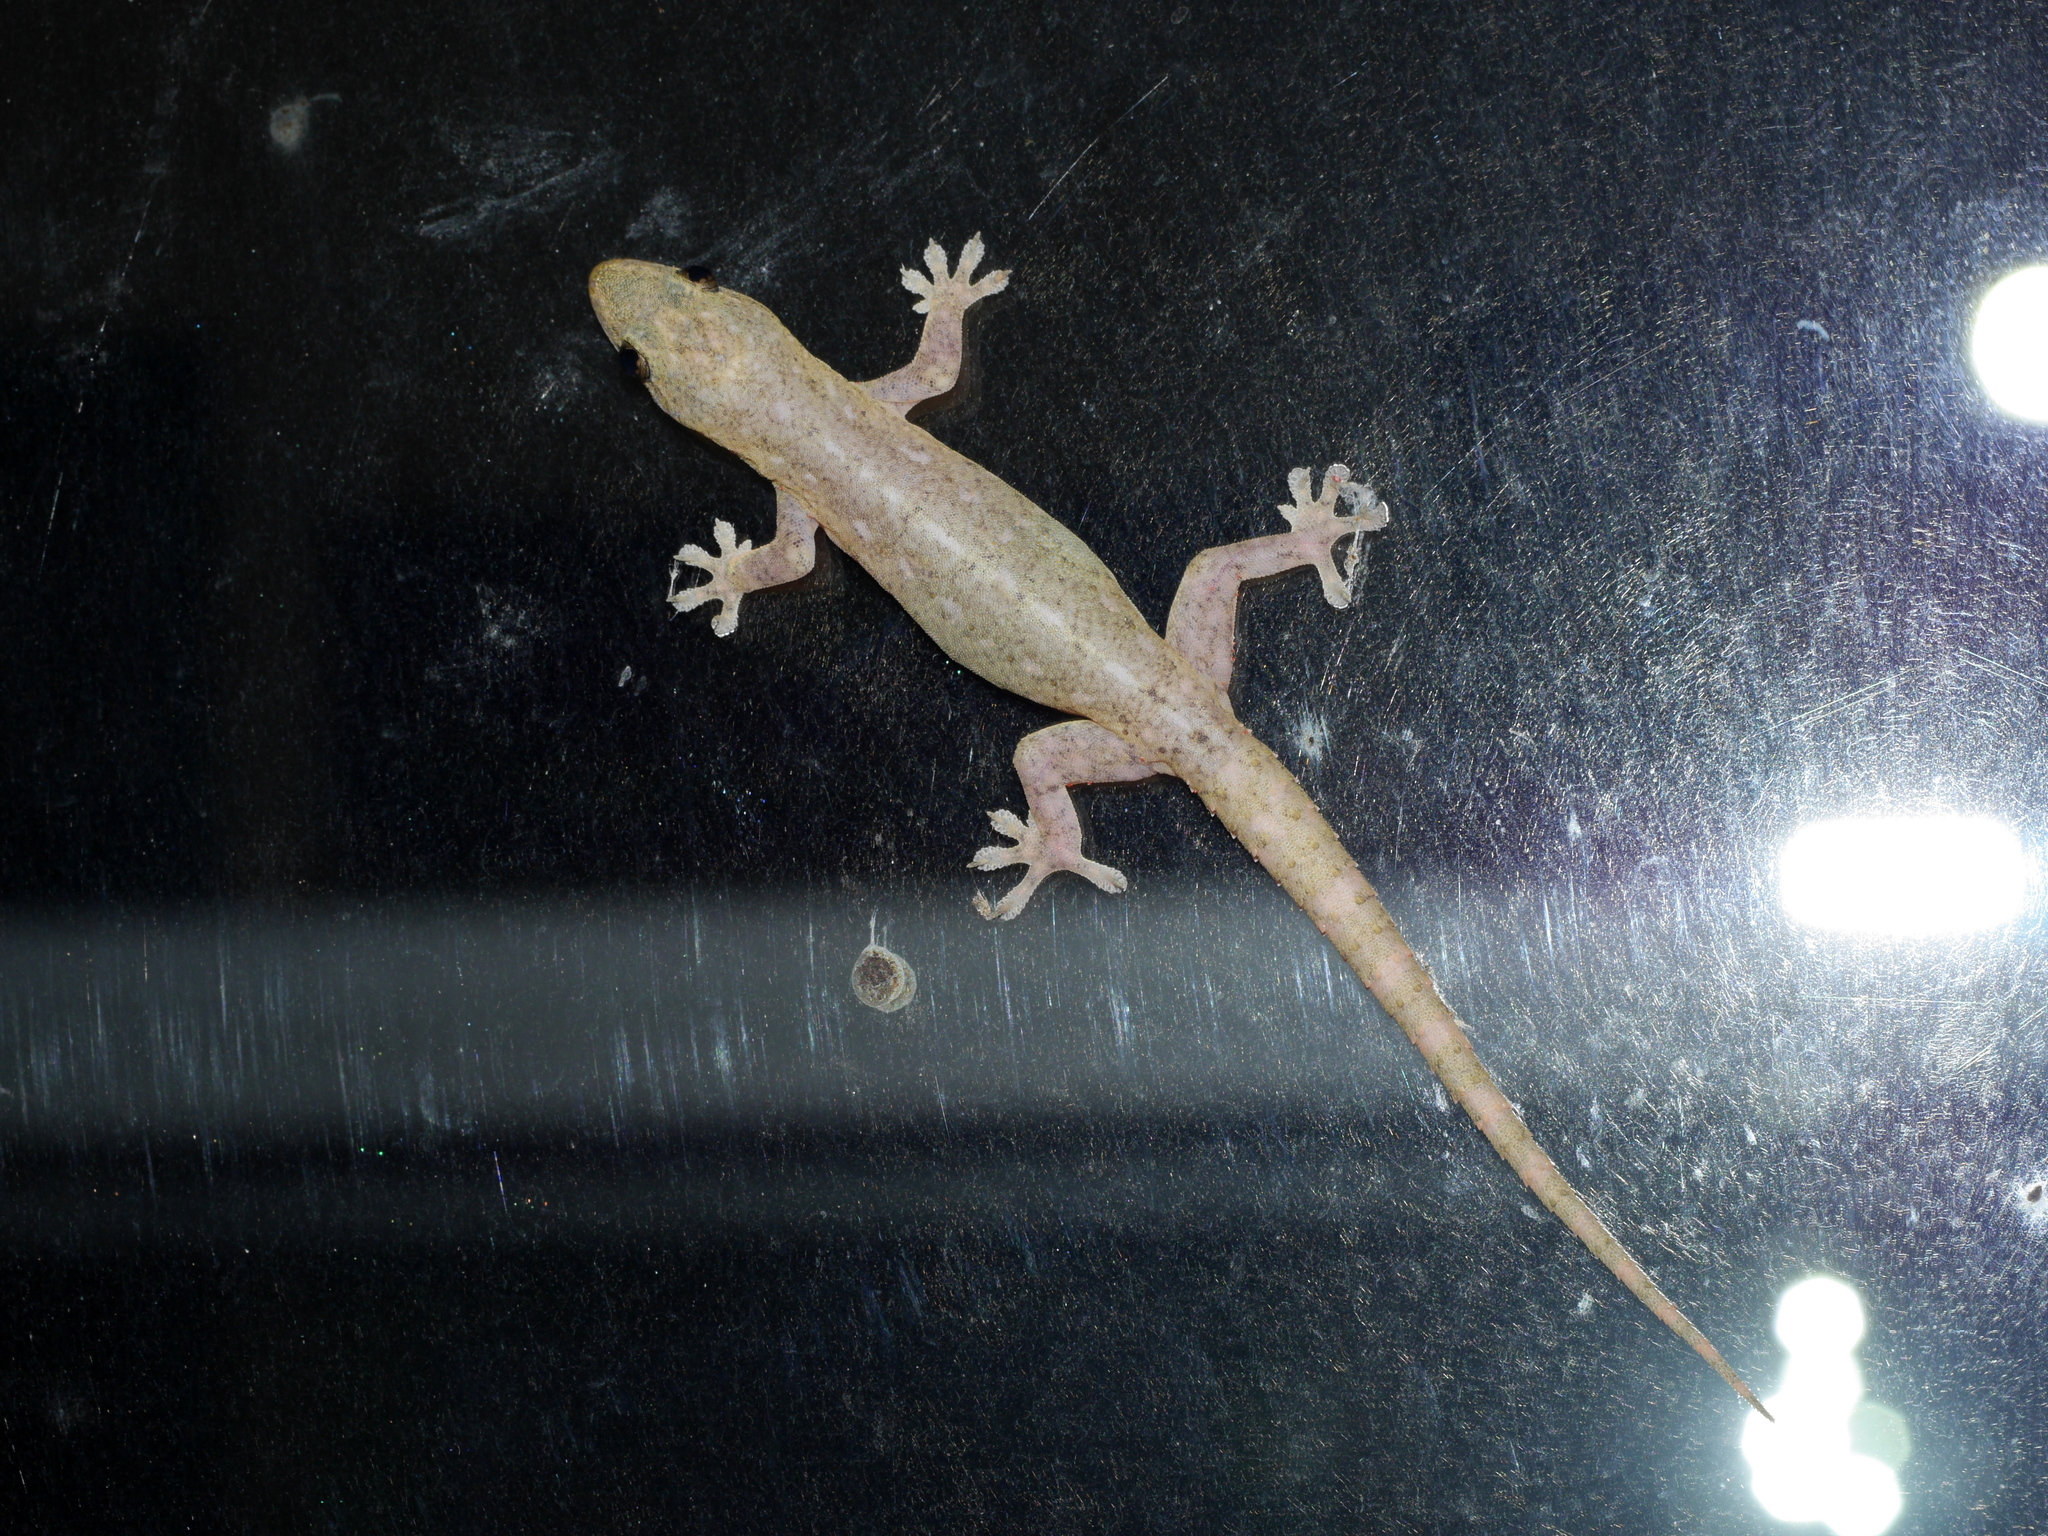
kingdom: Animalia
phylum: Chordata
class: Squamata
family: Gekkonidae
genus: Hemidactylus
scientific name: Hemidactylus frenatus
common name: Common house gecko
